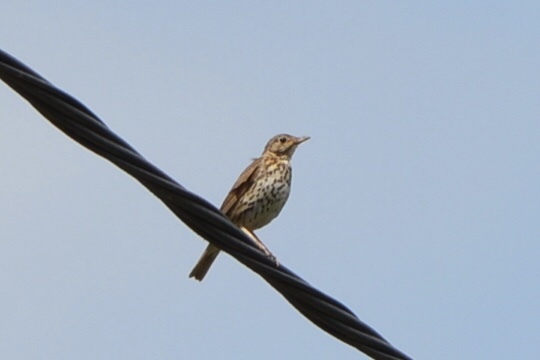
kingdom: Animalia
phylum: Chordata
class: Aves
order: Passeriformes
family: Turdidae
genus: Turdus
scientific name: Turdus philomelos
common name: Song thrush
